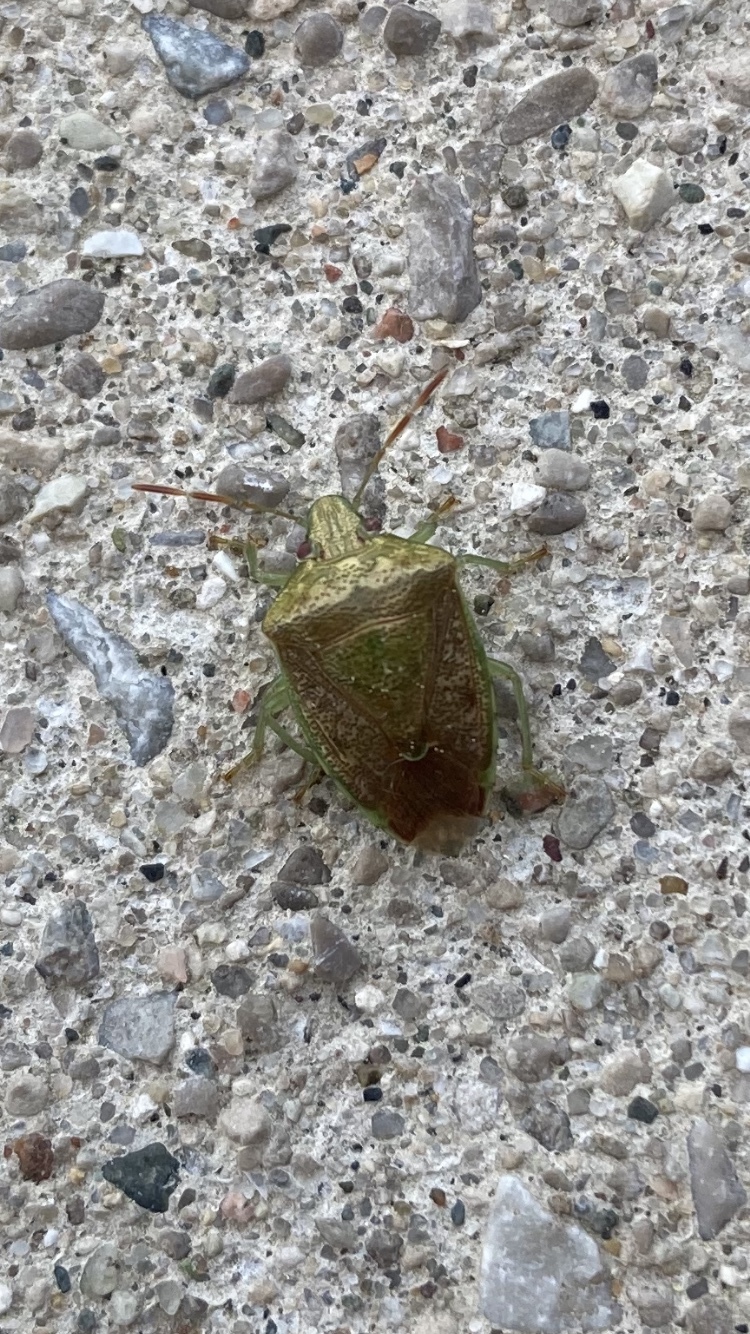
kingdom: Animalia
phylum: Arthropoda
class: Insecta
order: Hemiptera
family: Pentatomidae
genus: Banasa
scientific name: Banasa calva
